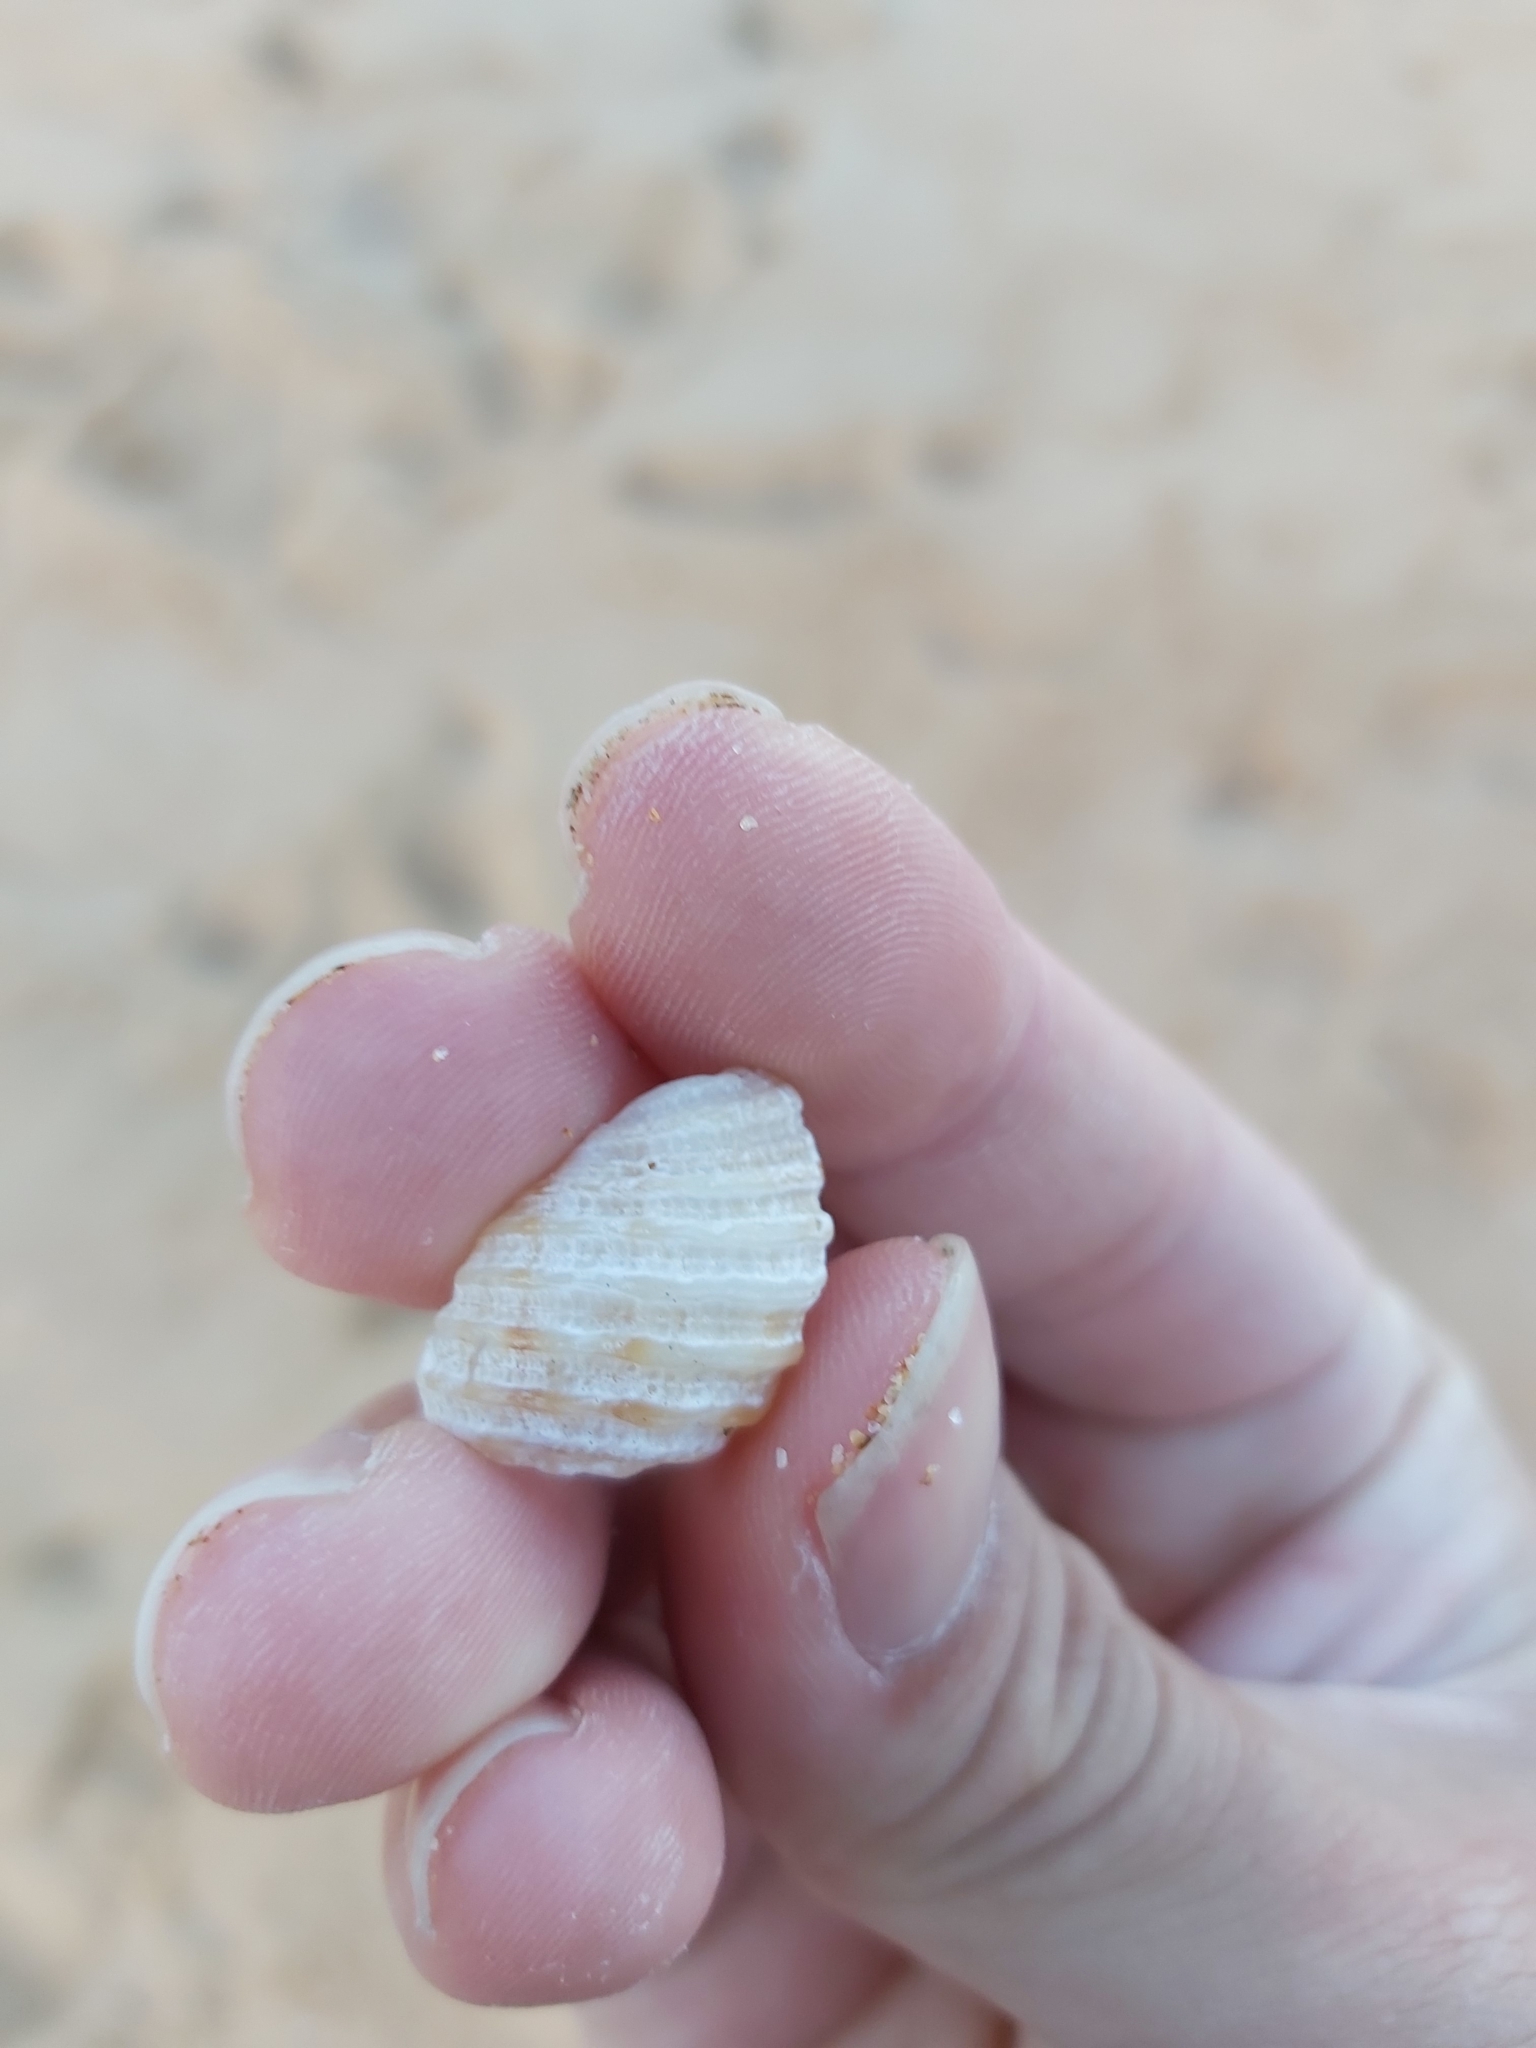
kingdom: Animalia
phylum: Mollusca
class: Gastropoda
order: Neogastropoda
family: Muricidae
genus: Dicathais
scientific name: Dicathais orbita
